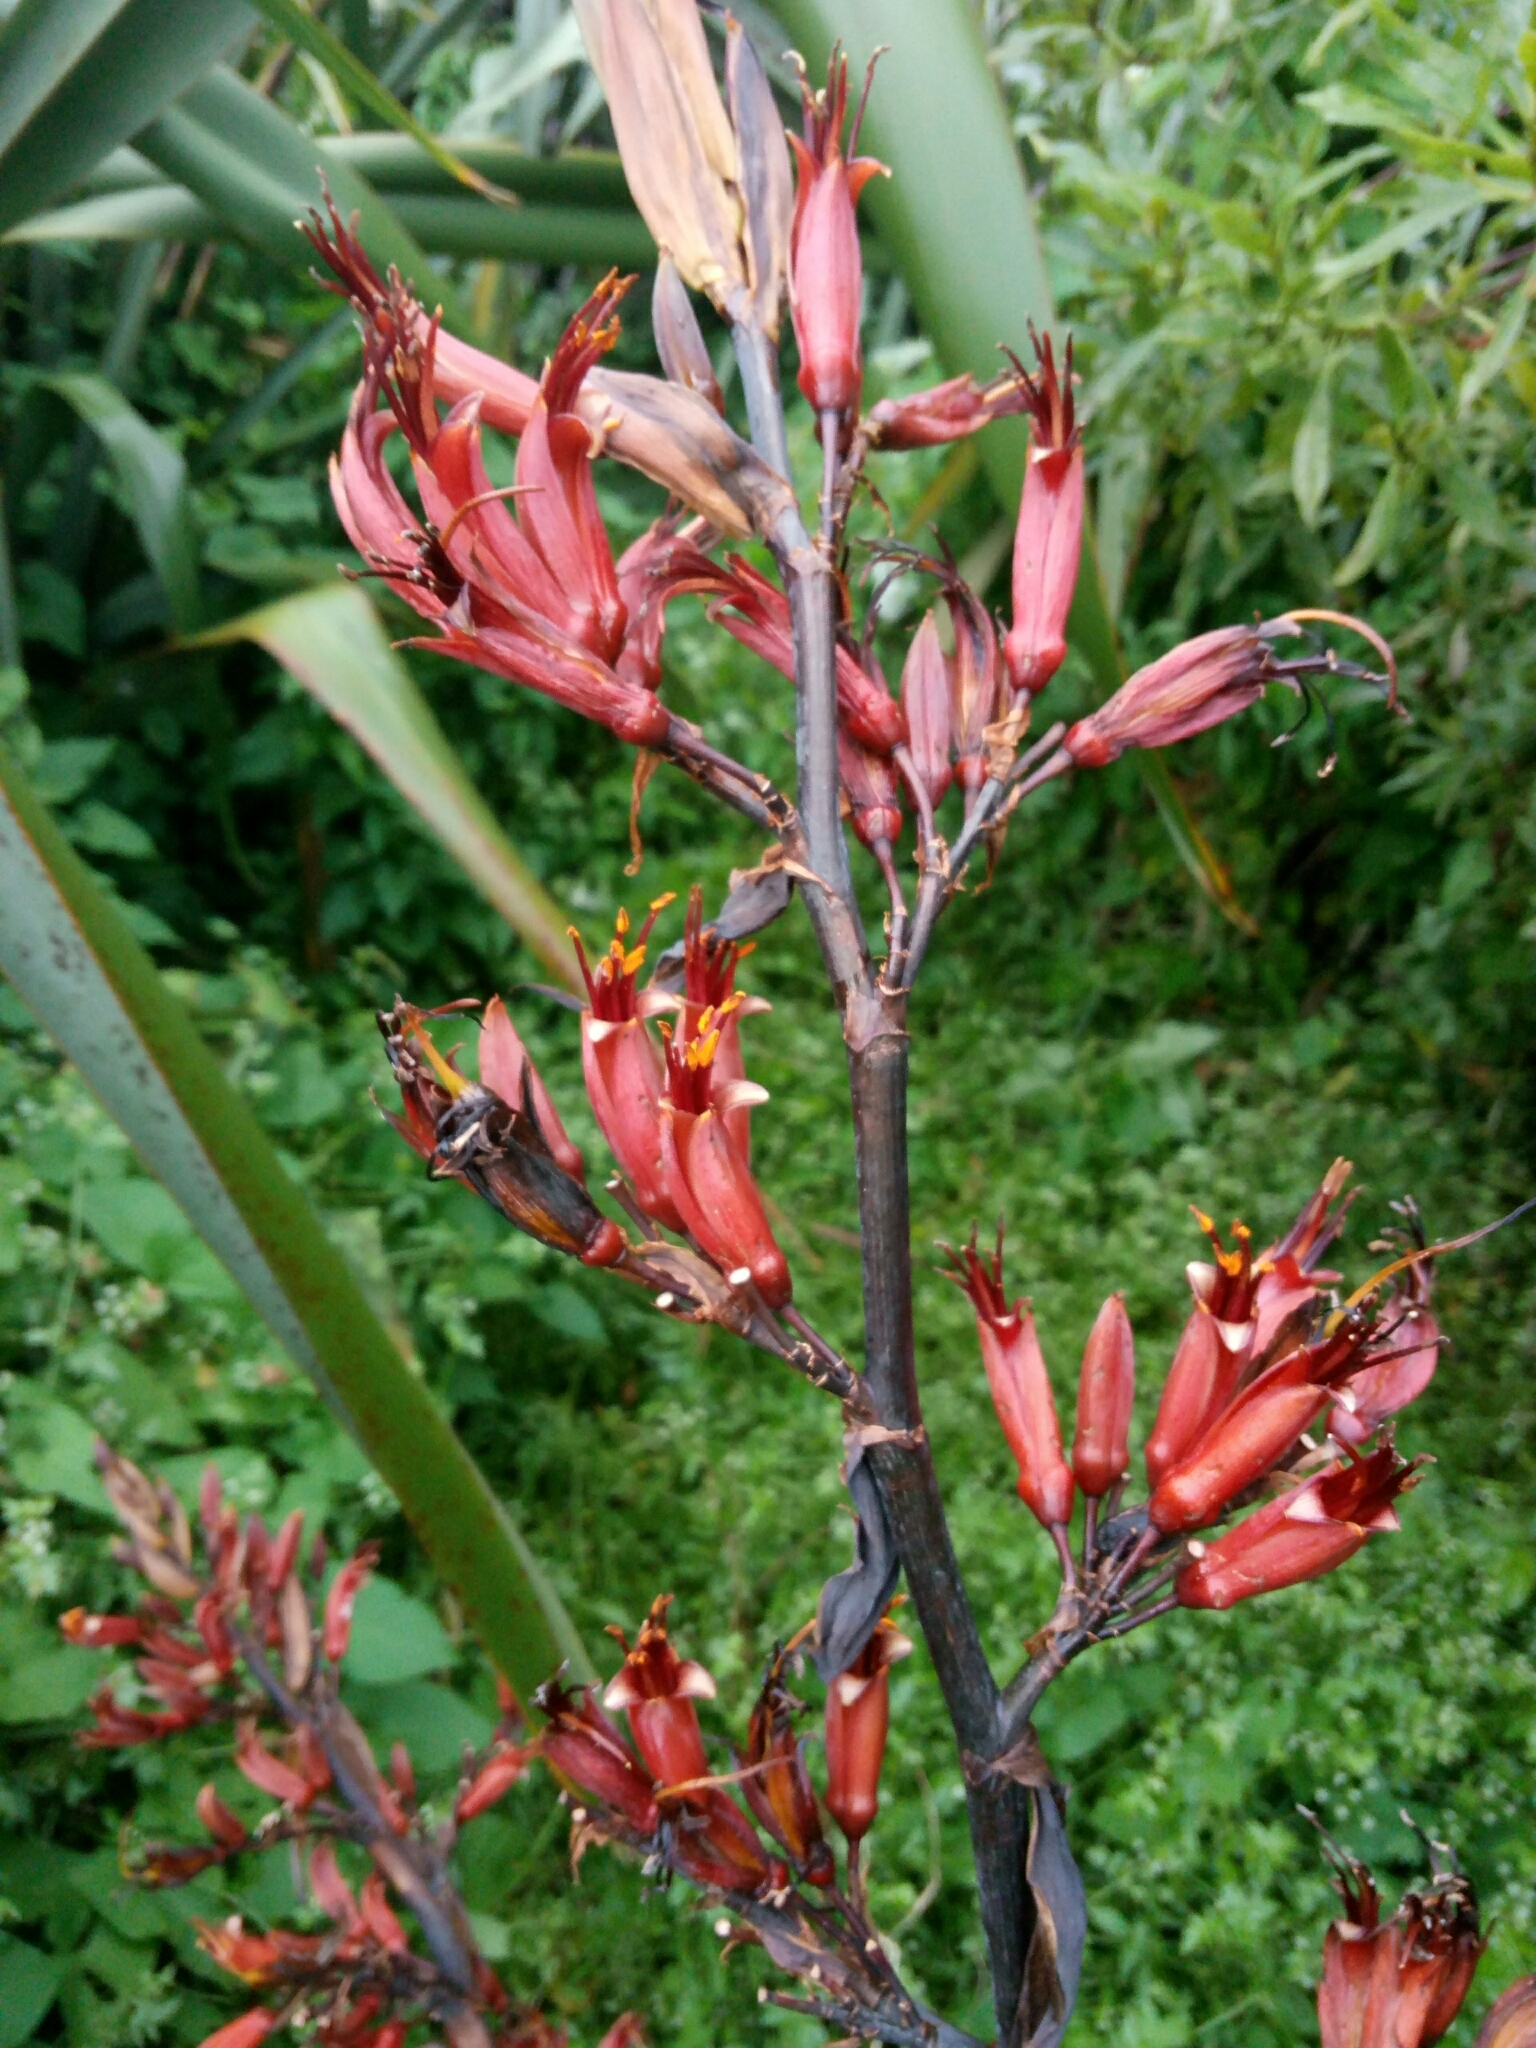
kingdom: Plantae
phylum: Tracheophyta
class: Liliopsida
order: Asparagales
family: Asphodelaceae
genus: Phormium
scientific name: Phormium tenax
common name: New zealand flax
